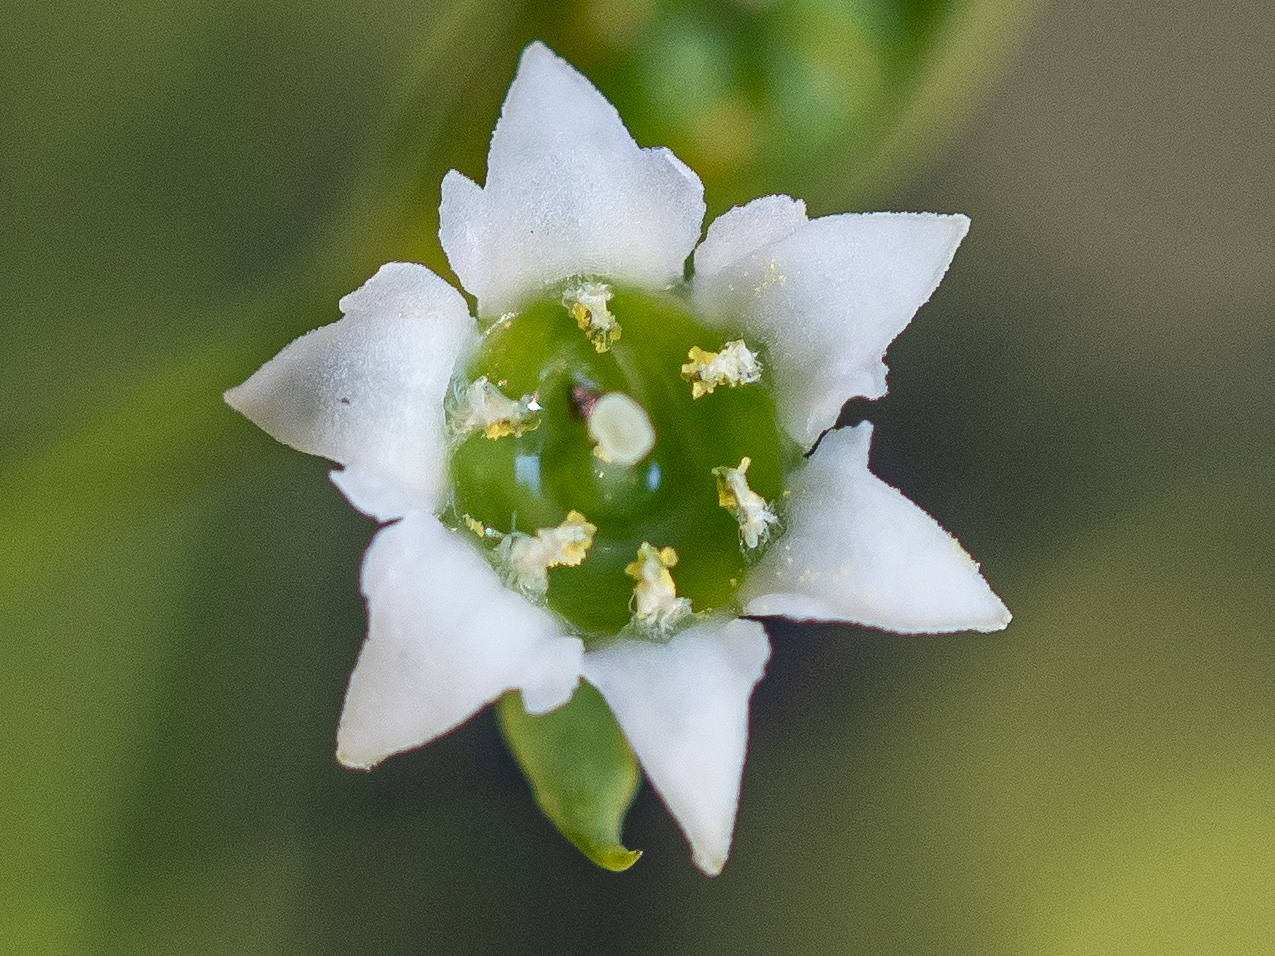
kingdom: Plantae
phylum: Tracheophyta
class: Magnoliopsida
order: Santalales
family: Thesiaceae
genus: Thesium
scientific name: Thesium bavarum
